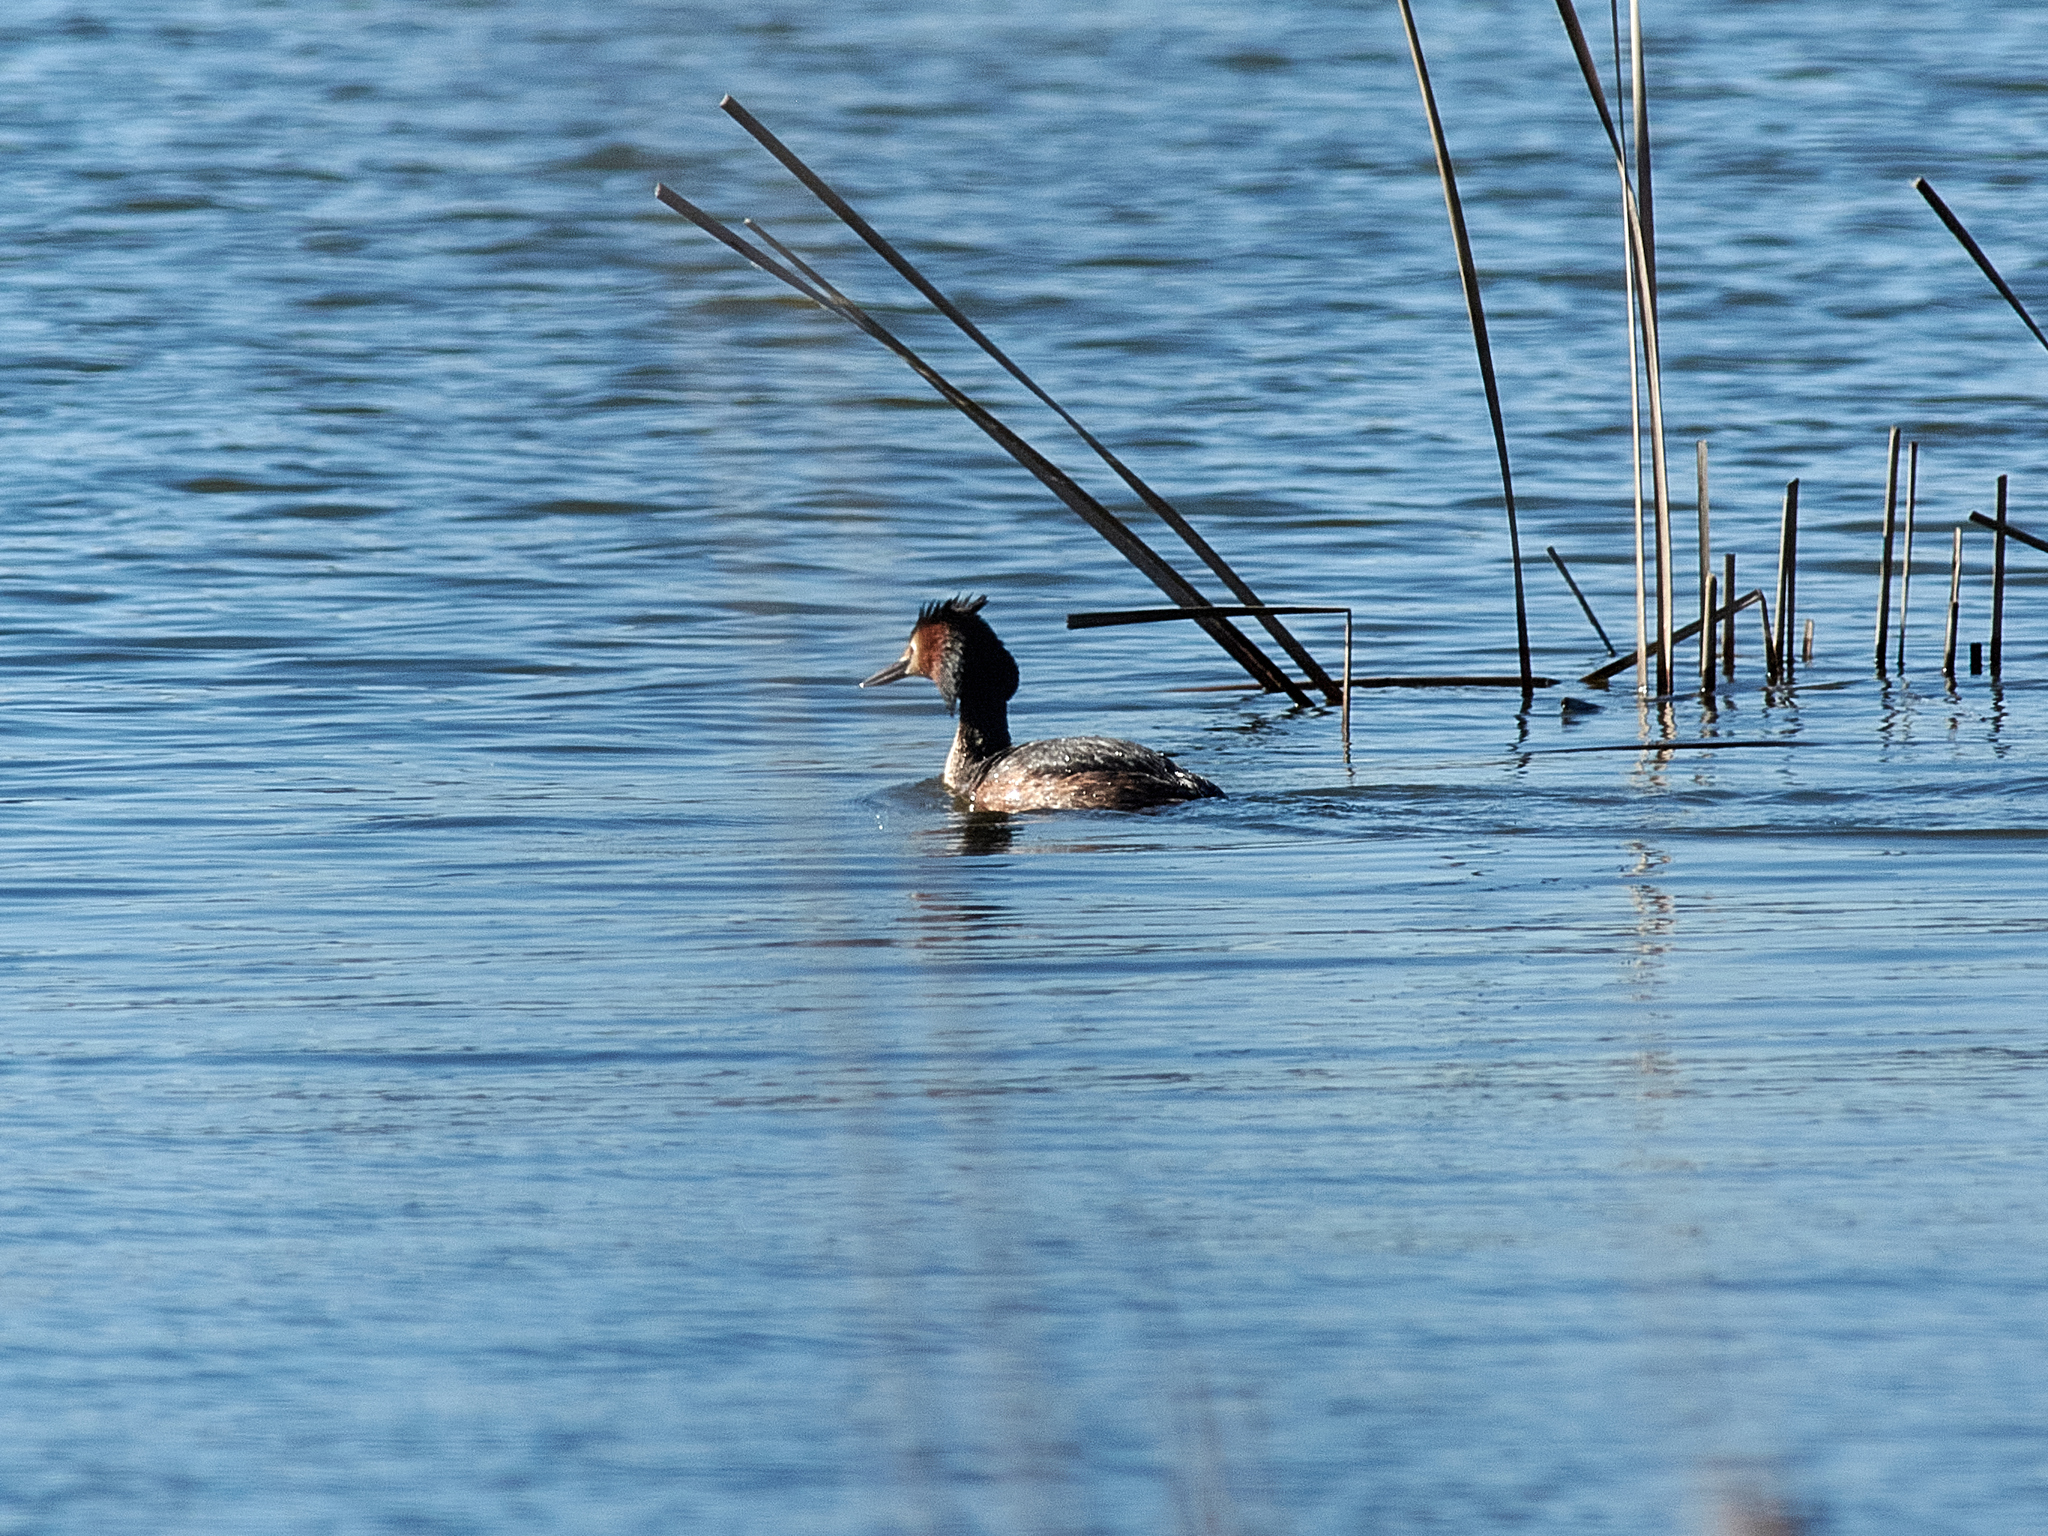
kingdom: Animalia
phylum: Chordata
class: Aves
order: Podicipediformes
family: Podicipedidae
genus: Podiceps
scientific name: Podiceps cristatus
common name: Great crested grebe
